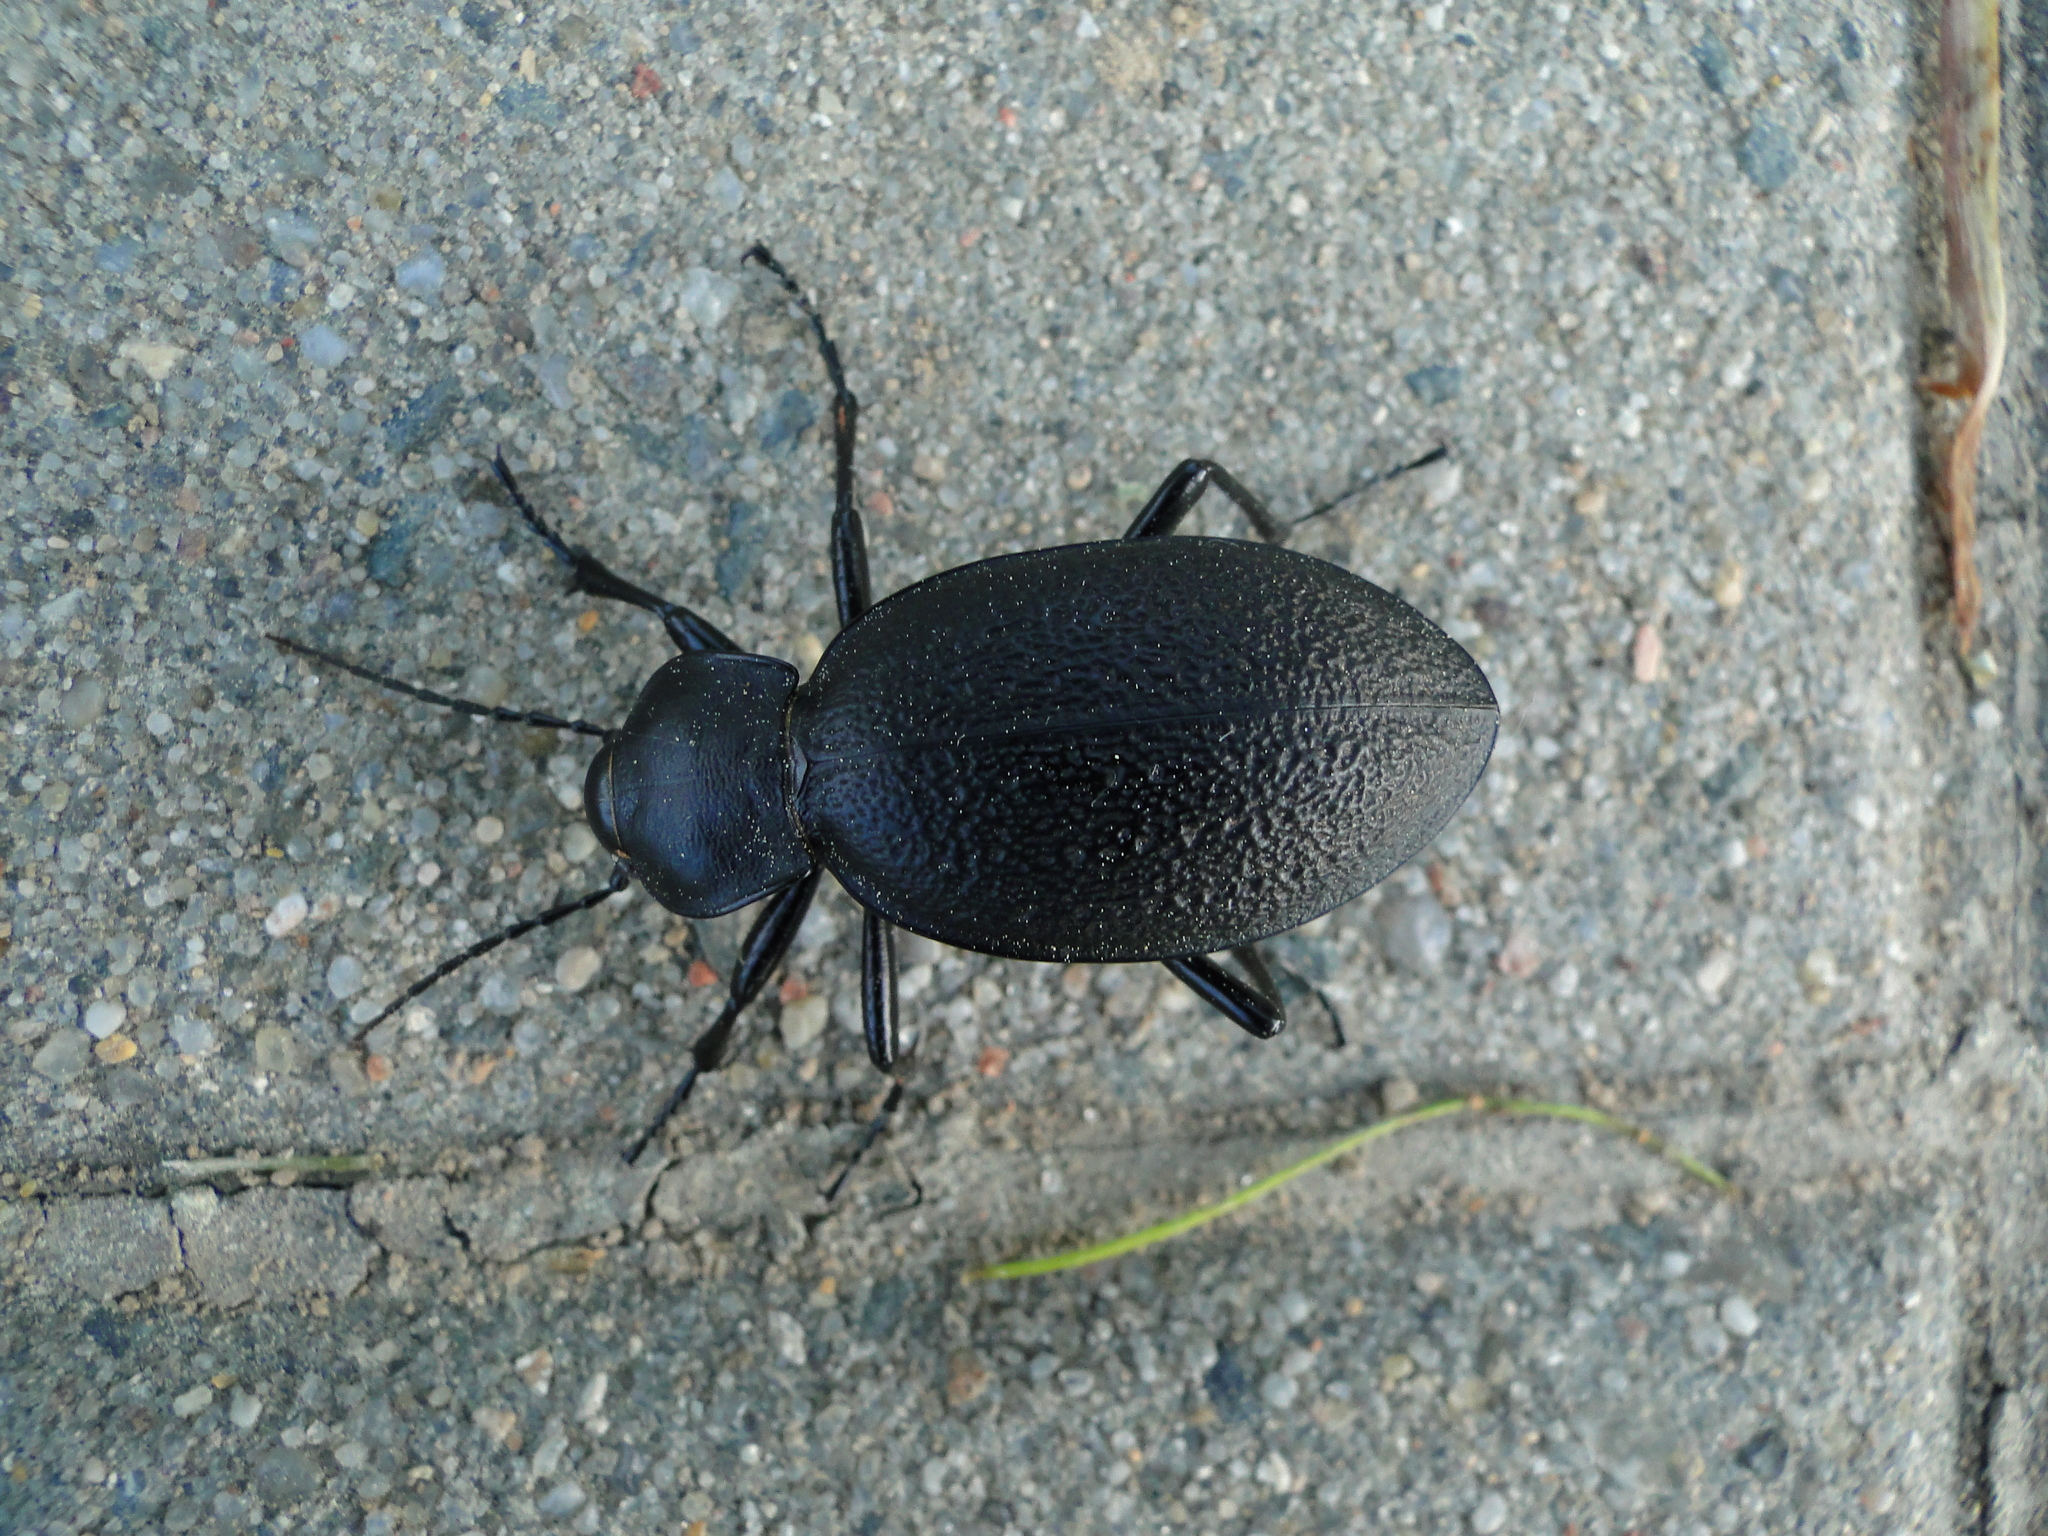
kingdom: Animalia
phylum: Arthropoda
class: Insecta
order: Coleoptera
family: Carabidae
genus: Carabus
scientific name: Carabus coriaceus
